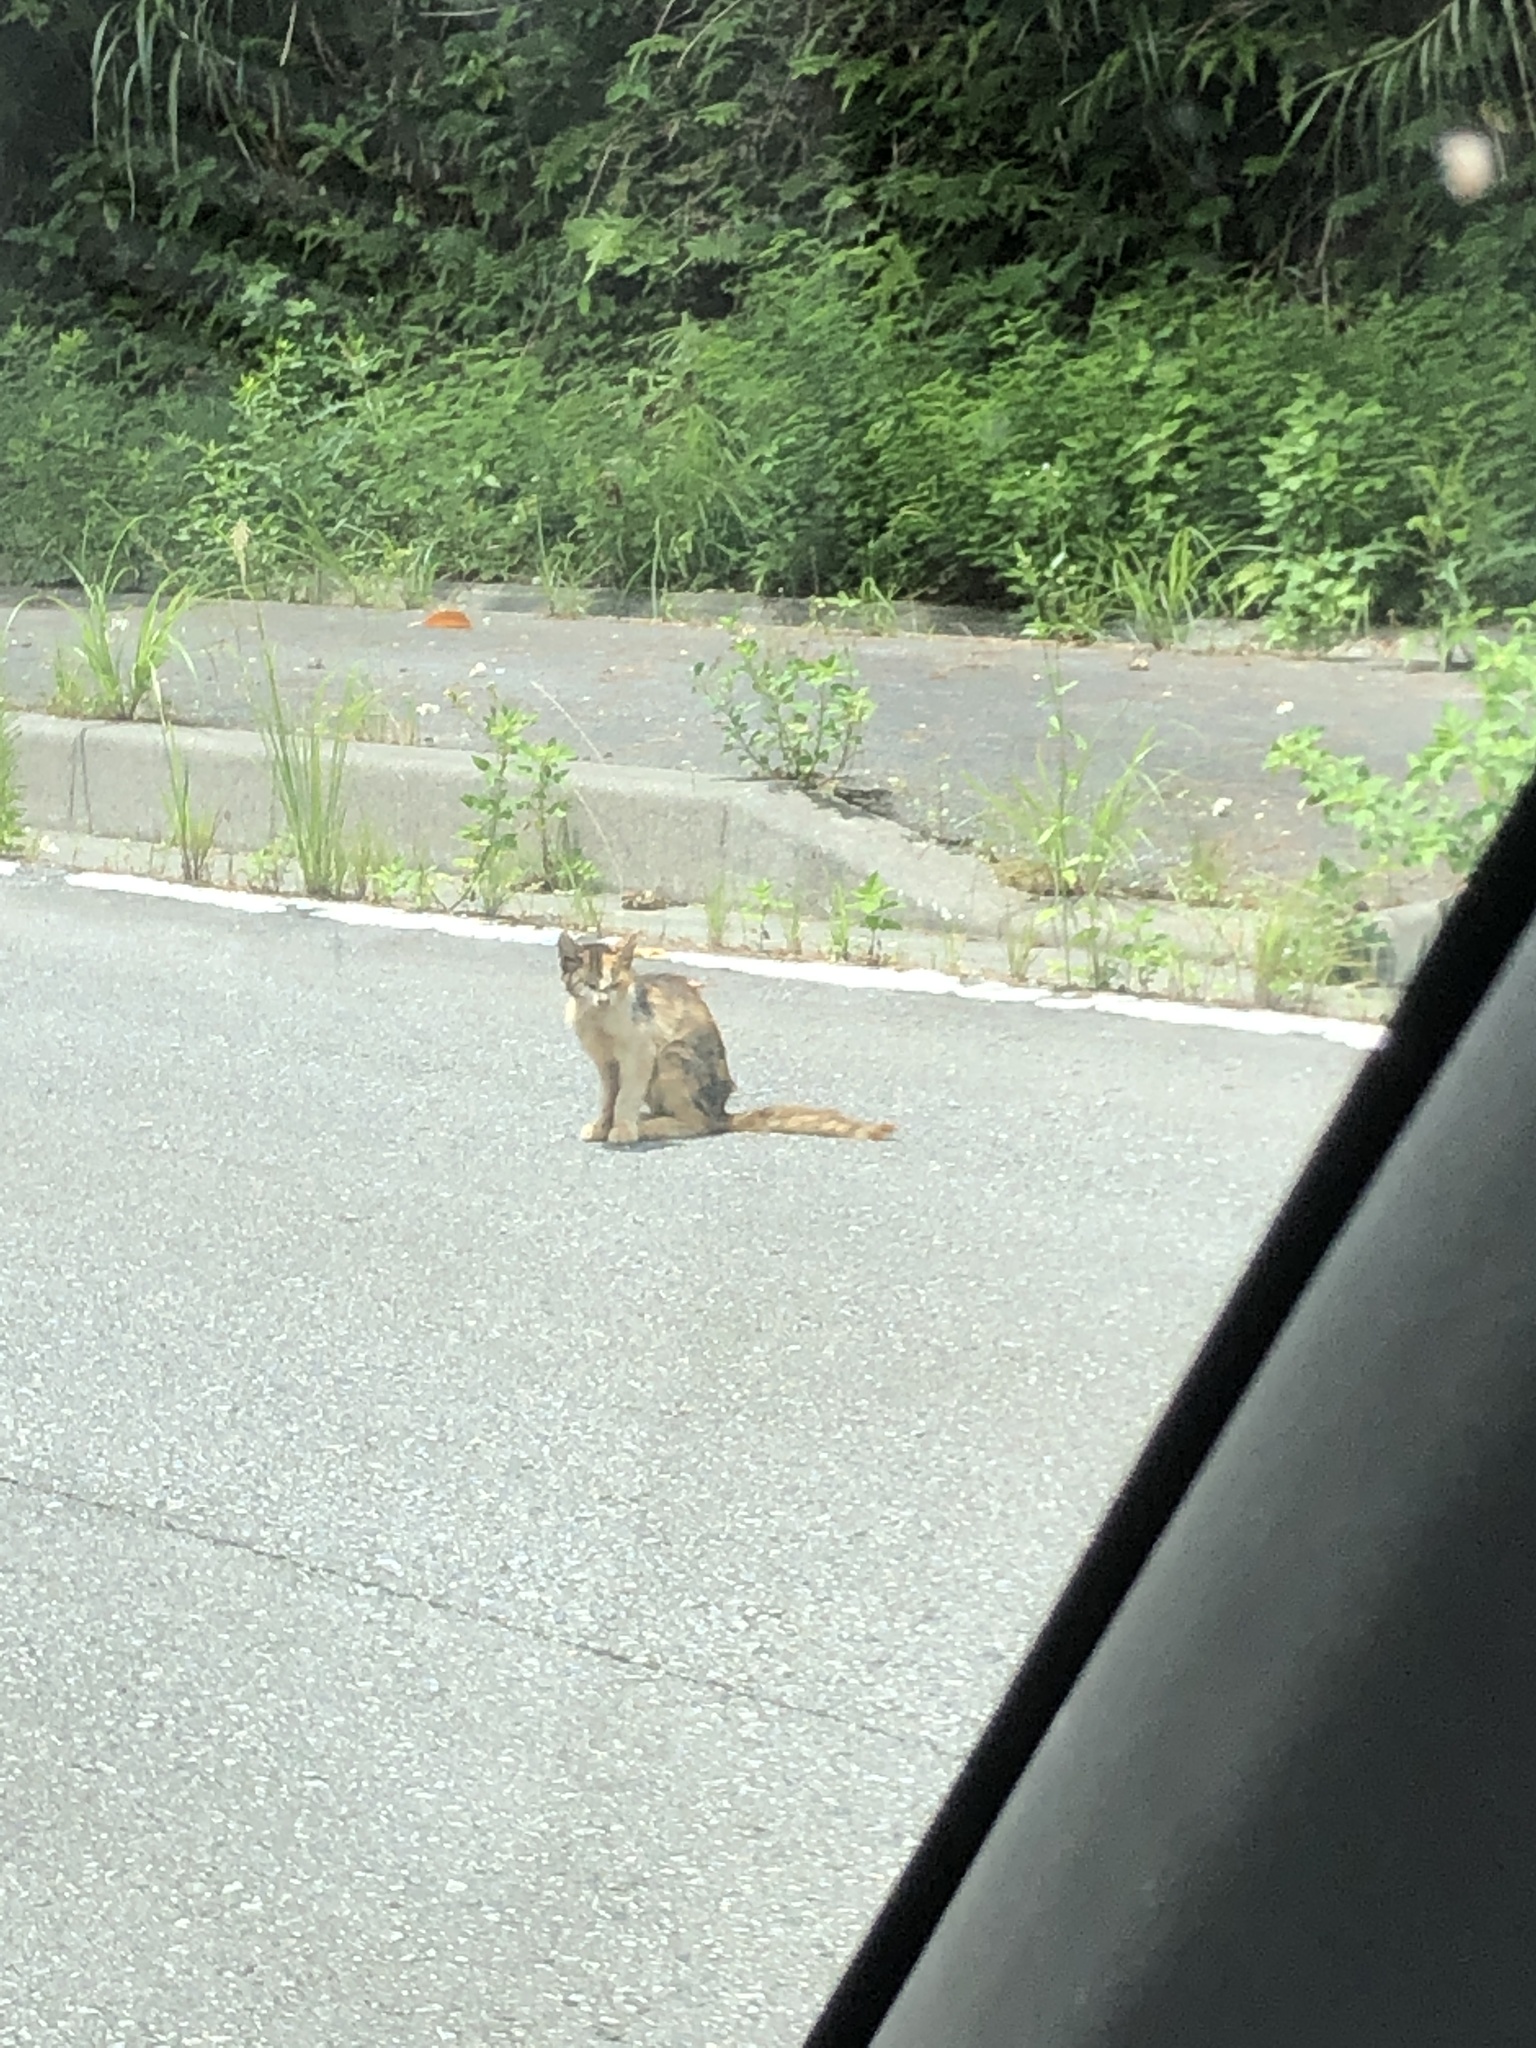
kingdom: Animalia
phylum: Chordata
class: Mammalia
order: Carnivora
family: Felidae
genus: Felis
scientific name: Felis catus
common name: Domestic cat
